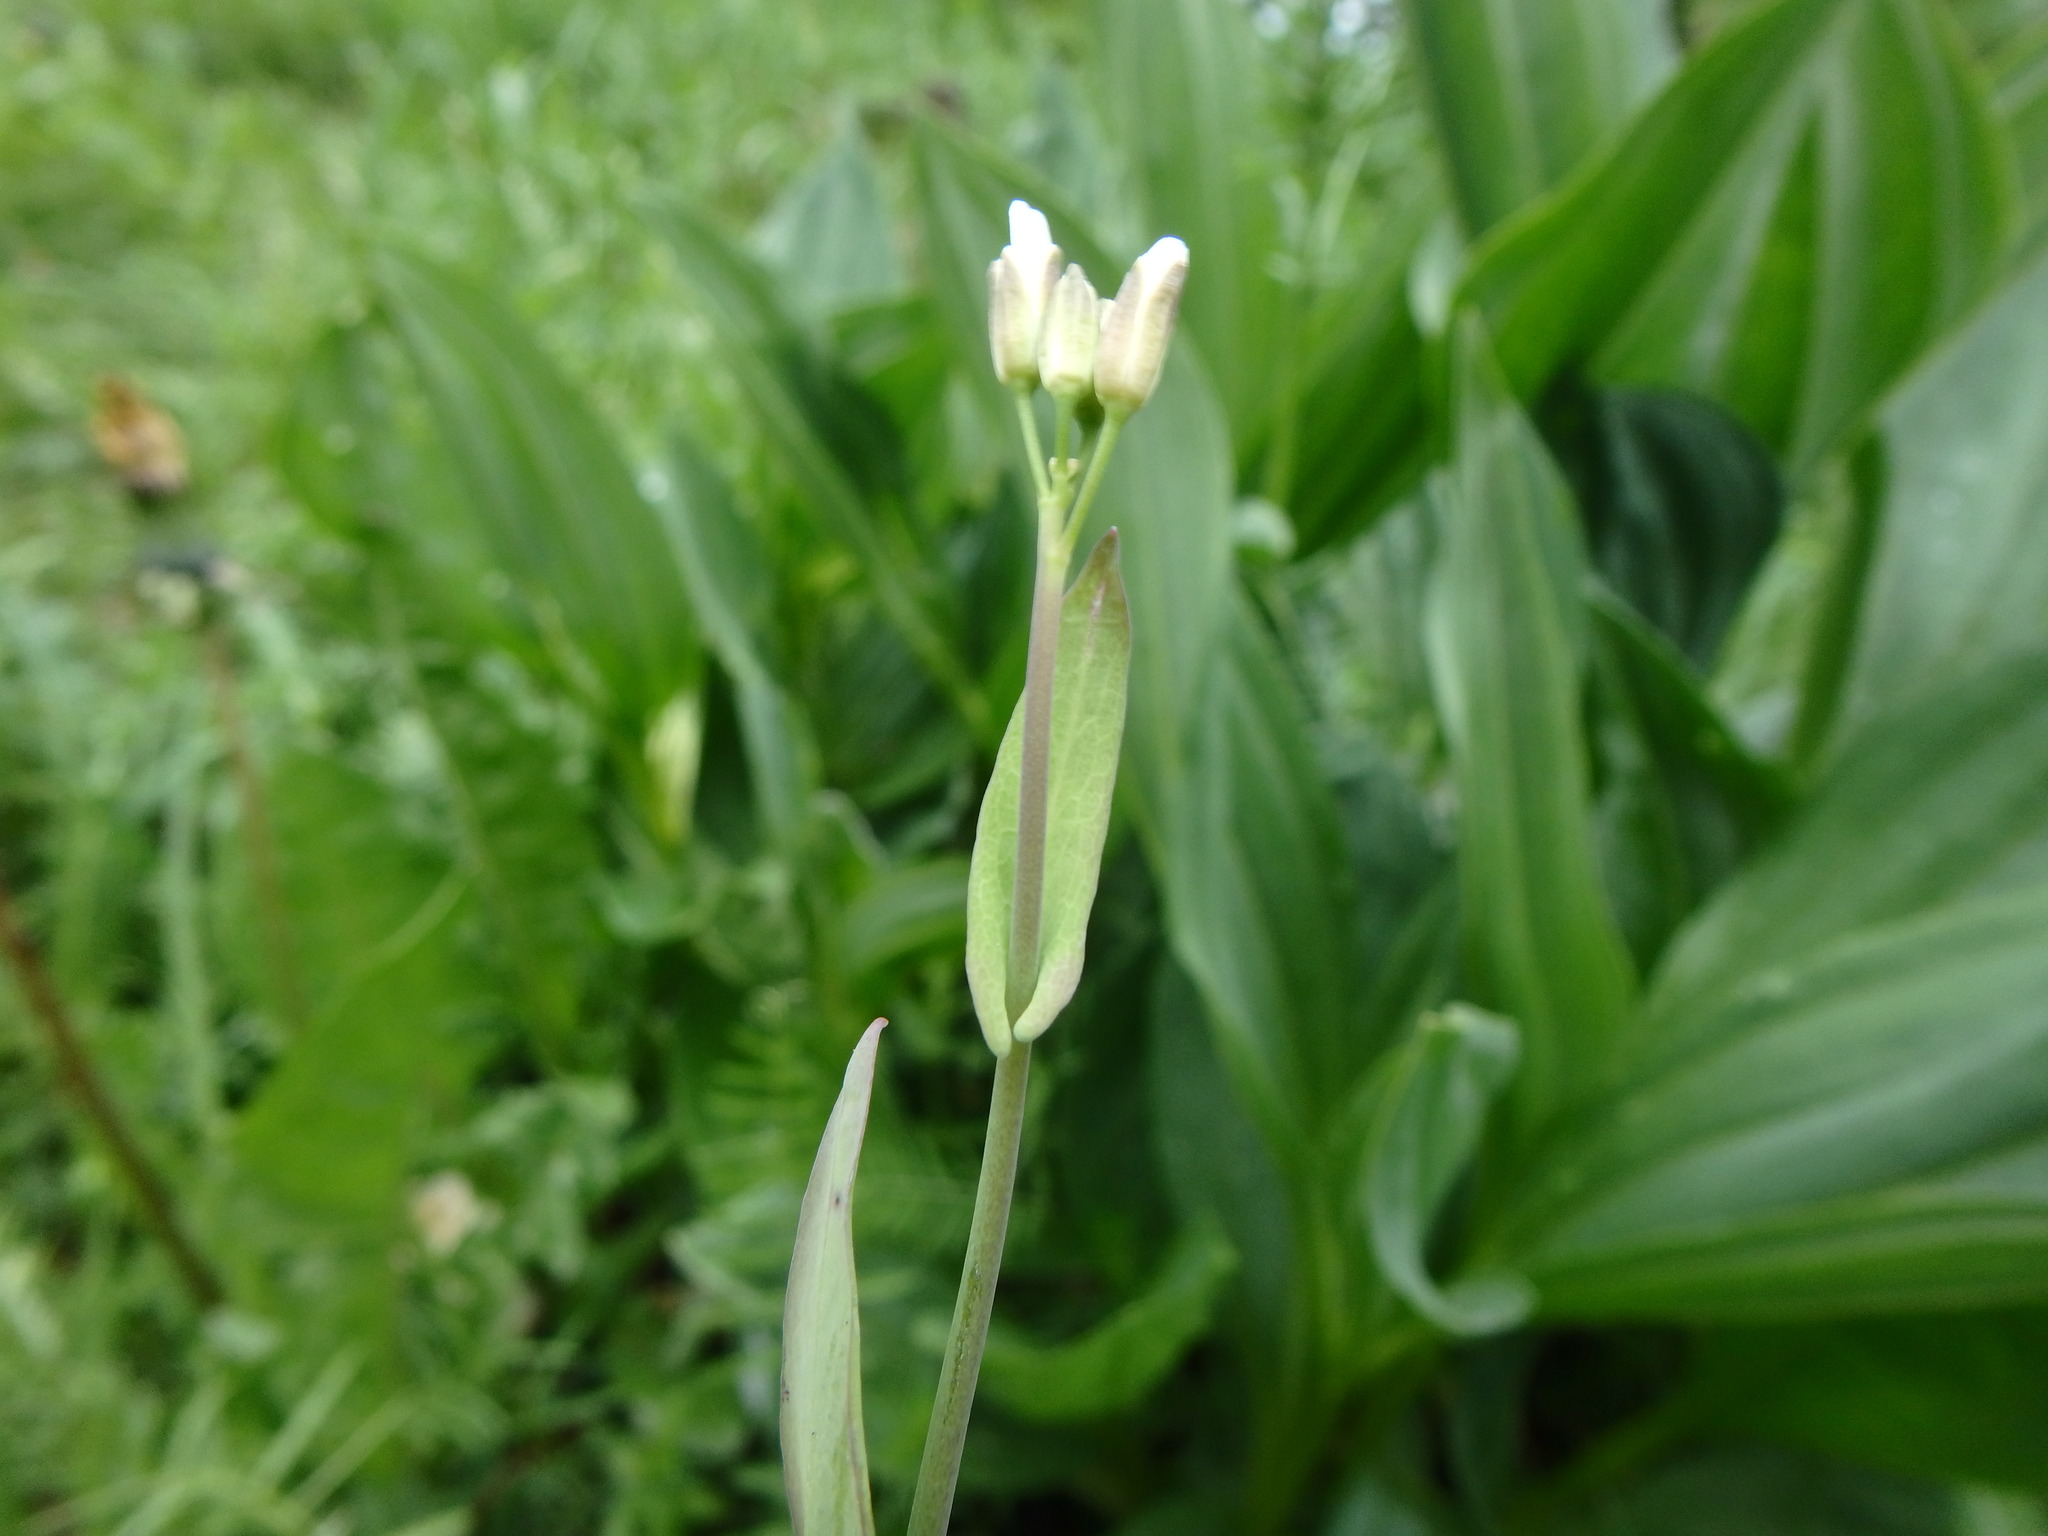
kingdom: Plantae
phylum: Tracheophyta
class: Magnoliopsida
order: Brassicales
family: Brassicaceae
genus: Fourraea
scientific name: Fourraea alpina
